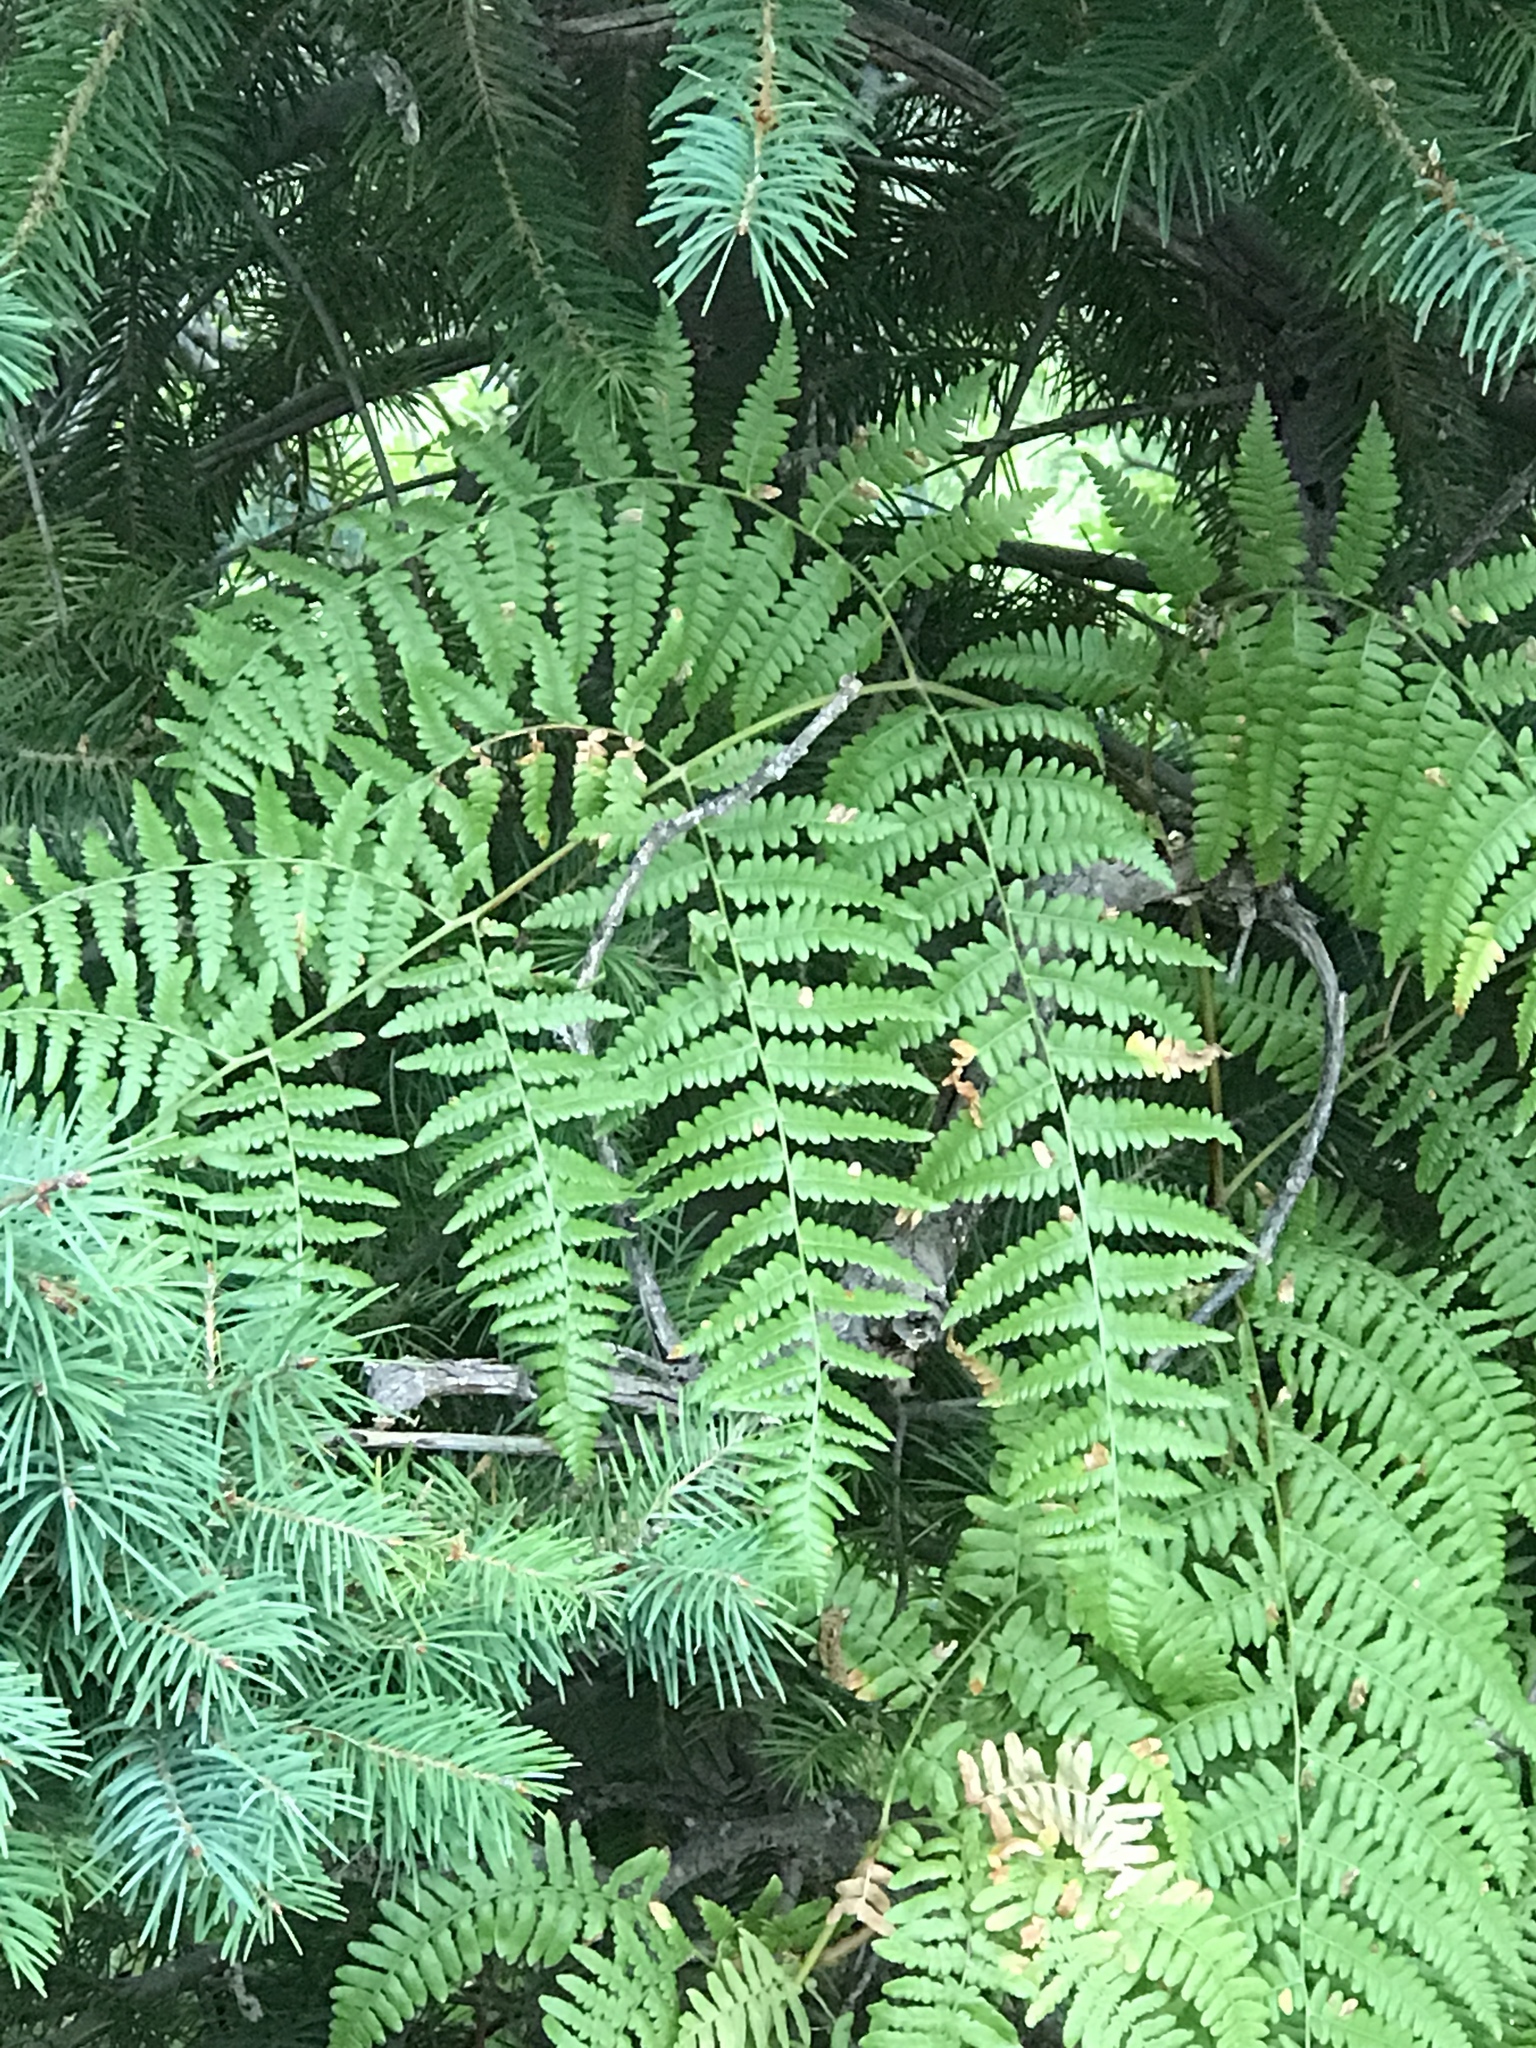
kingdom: Plantae
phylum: Tracheophyta
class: Polypodiopsida
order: Polypodiales
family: Dennstaedtiaceae
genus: Pteridium
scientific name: Pteridium aquilinum
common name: Bracken
